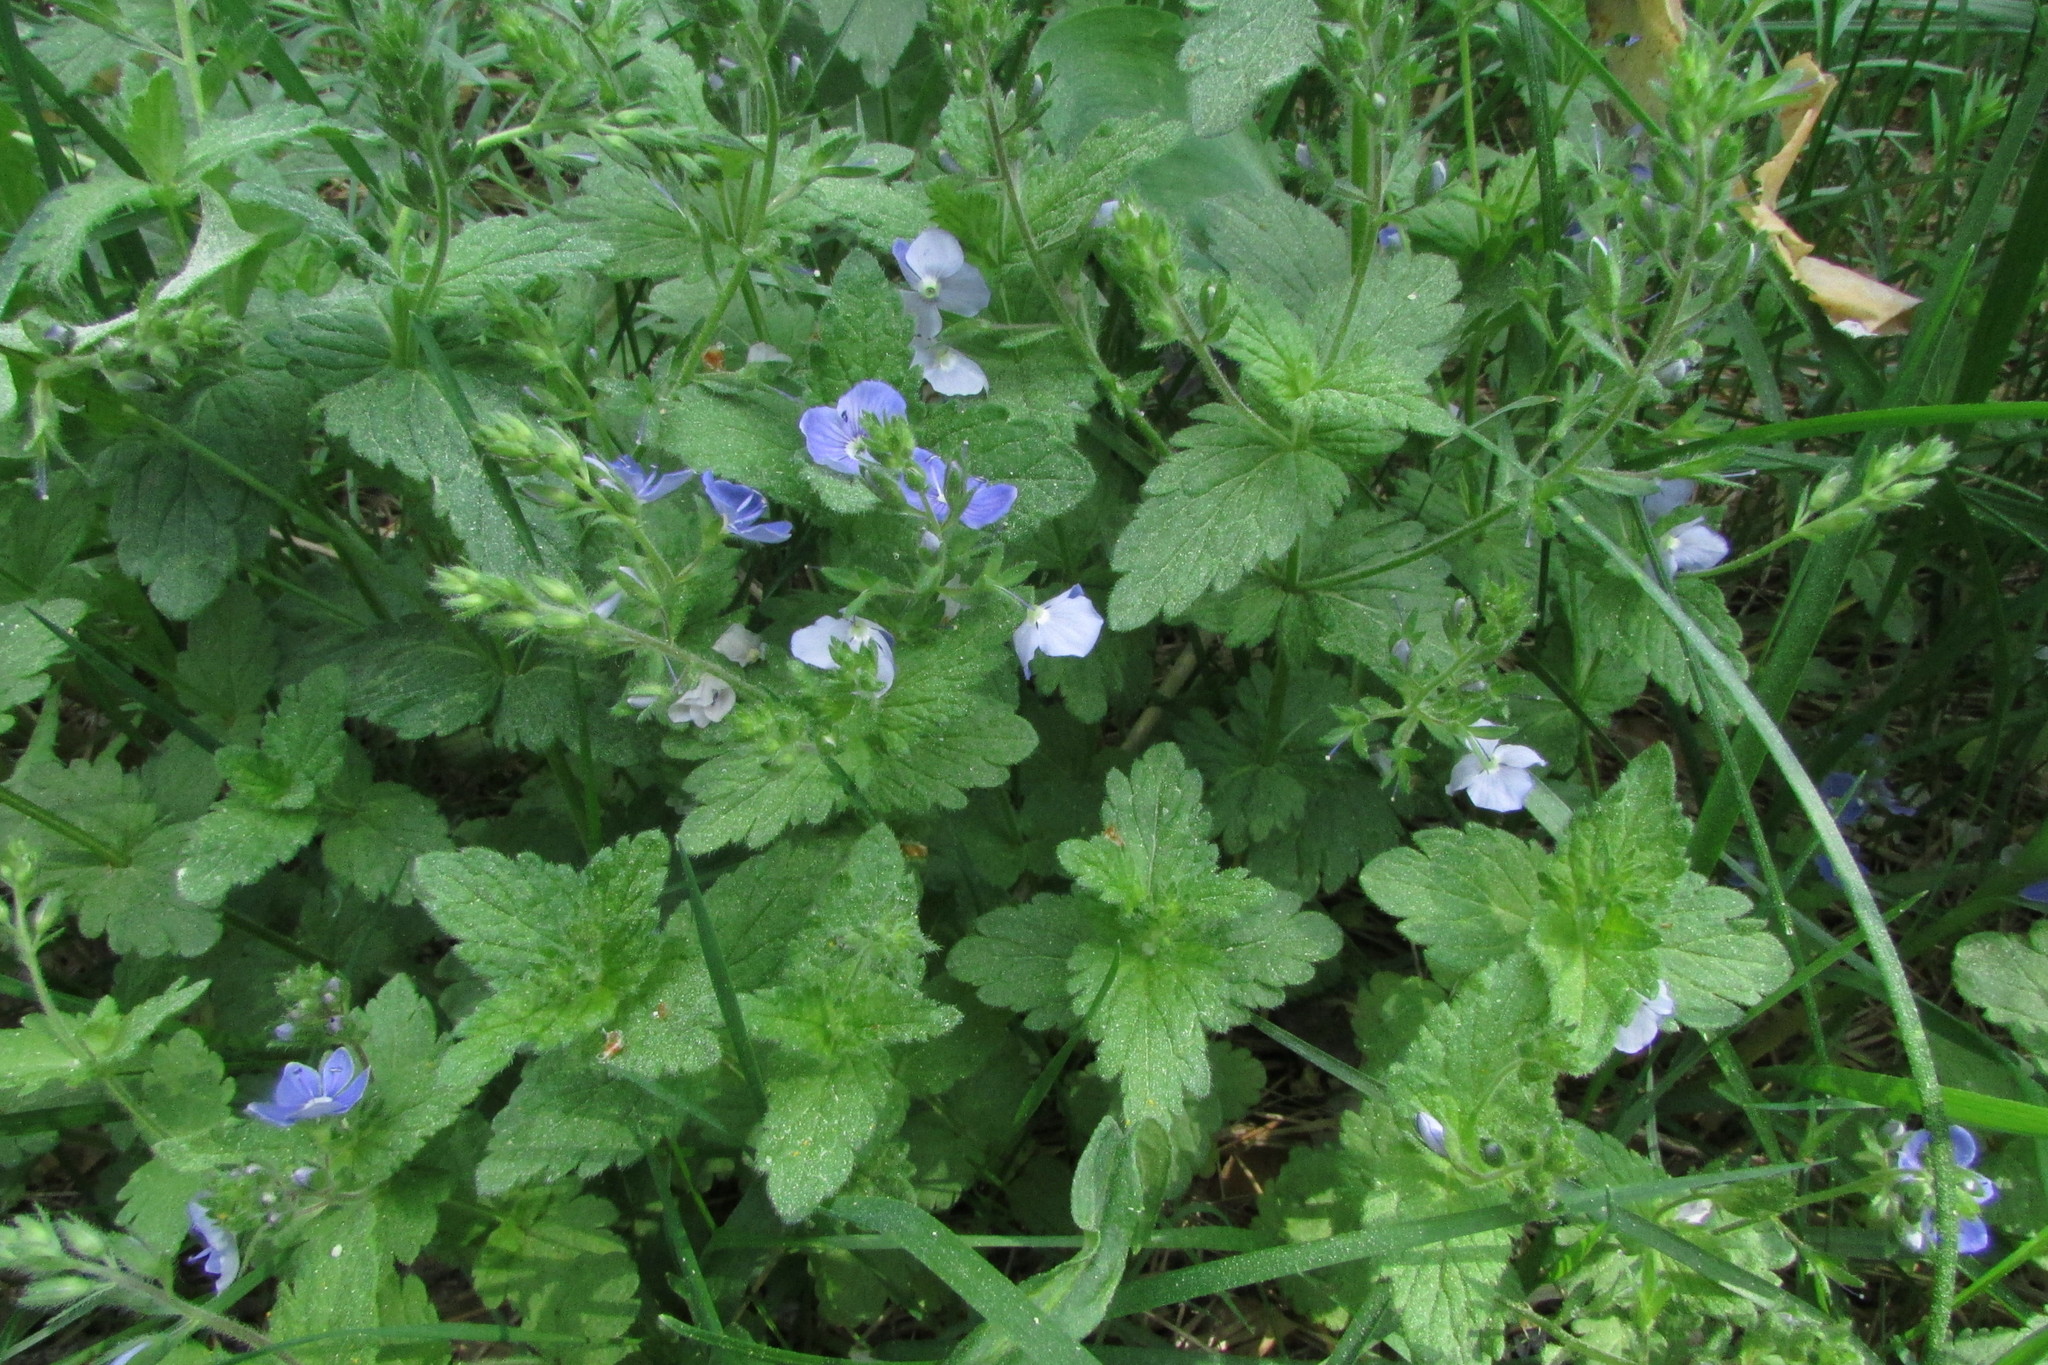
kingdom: Plantae
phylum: Tracheophyta
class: Magnoliopsida
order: Lamiales
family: Plantaginaceae
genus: Veronica
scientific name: Veronica chamaedrys
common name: Germander speedwell
